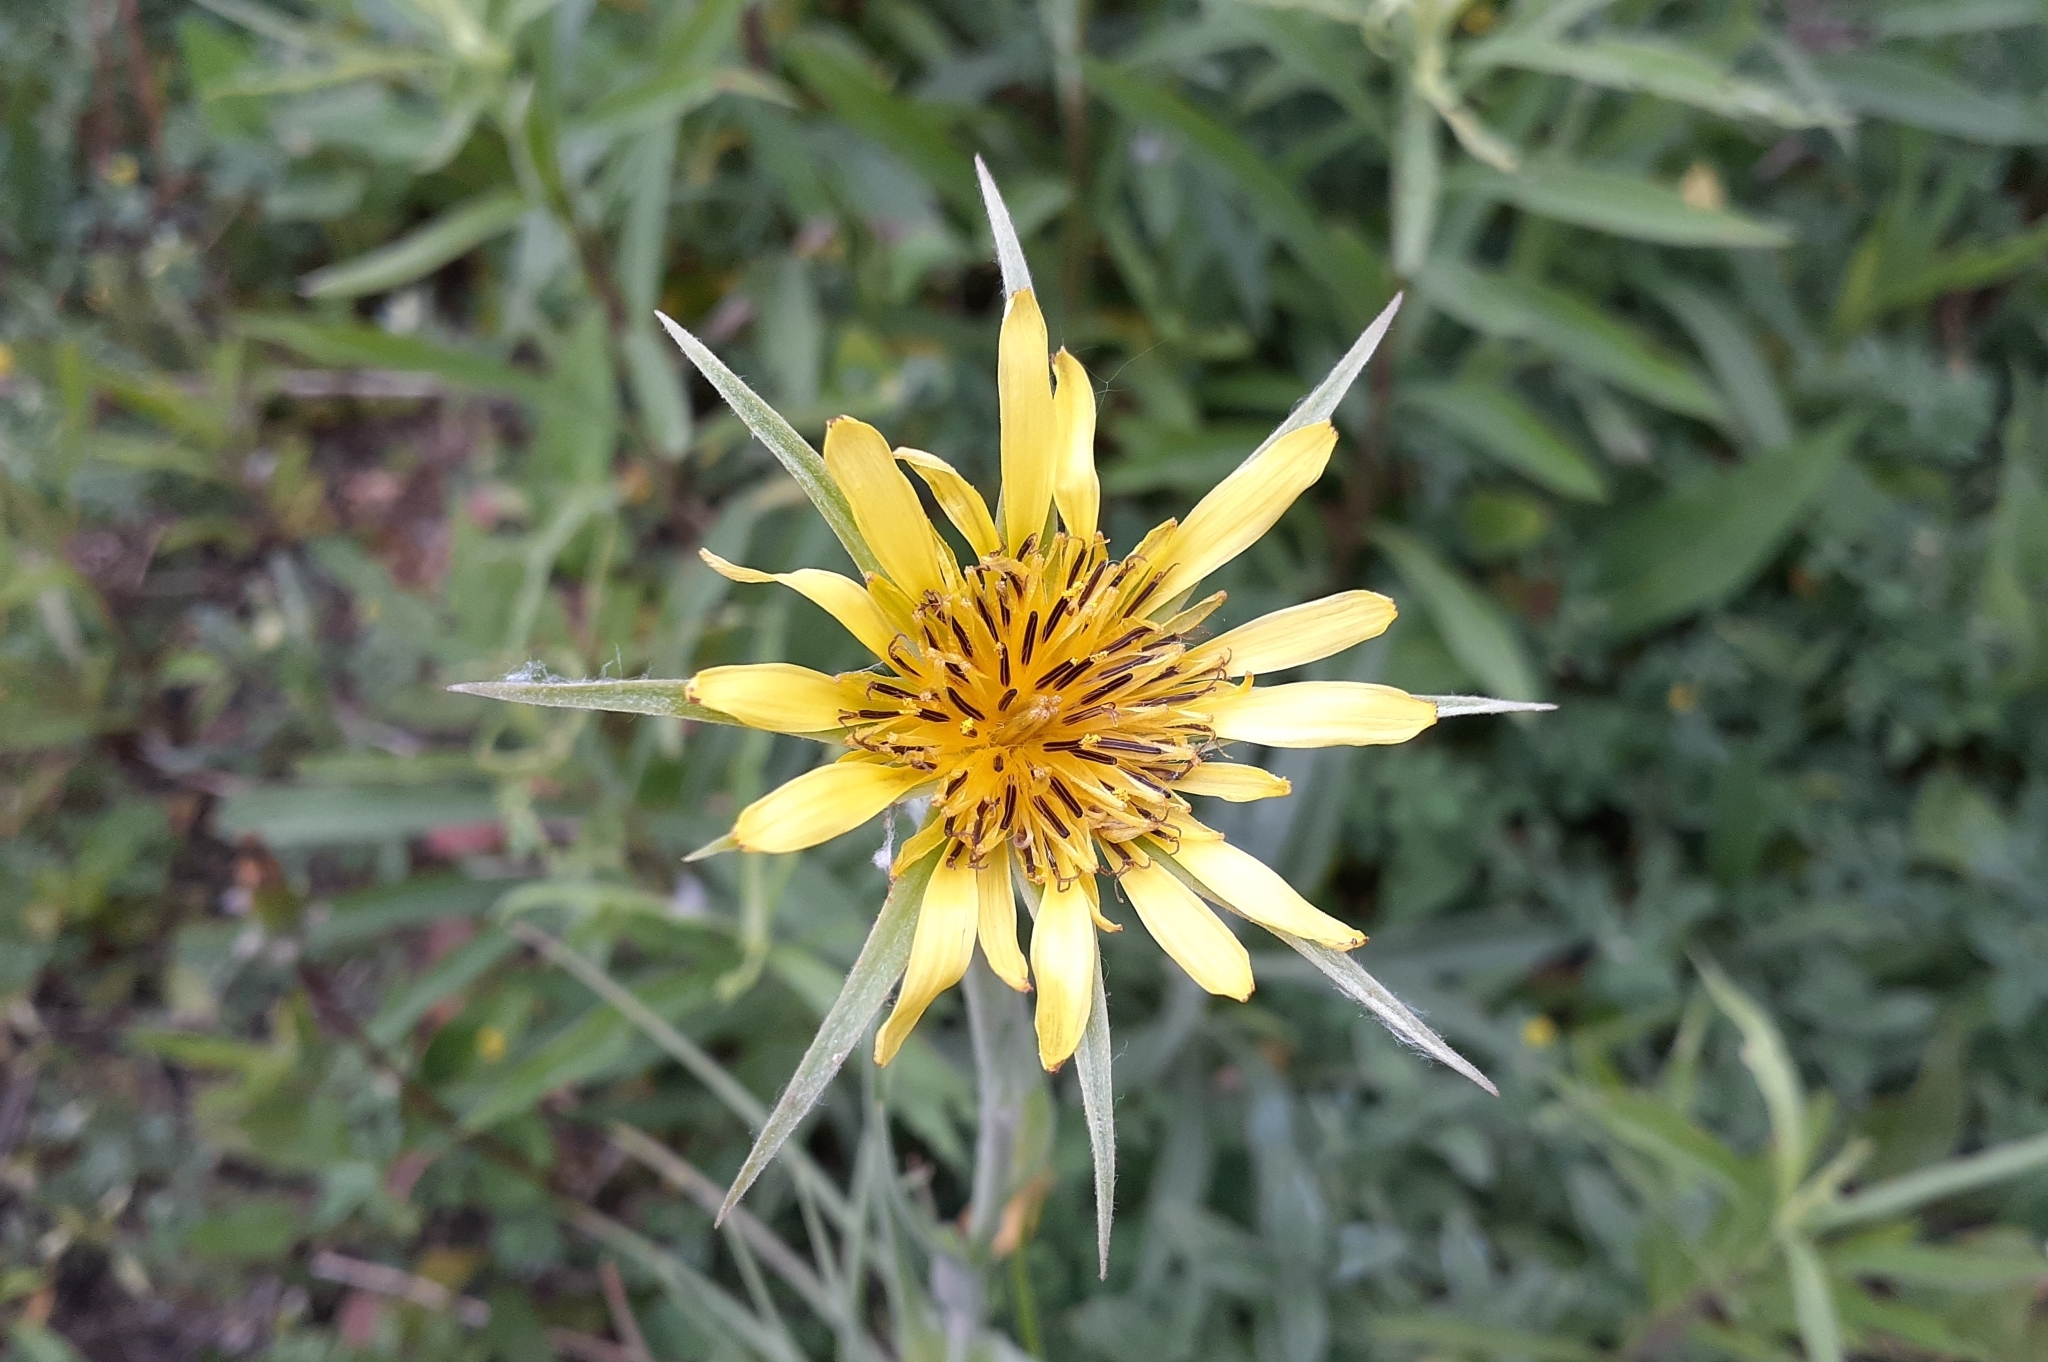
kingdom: Plantae
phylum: Tracheophyta
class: Magnoliopsida
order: Asterales
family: Asteraceae
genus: Tragopogon
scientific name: Tragopogon dubius
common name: Yellow salsify
